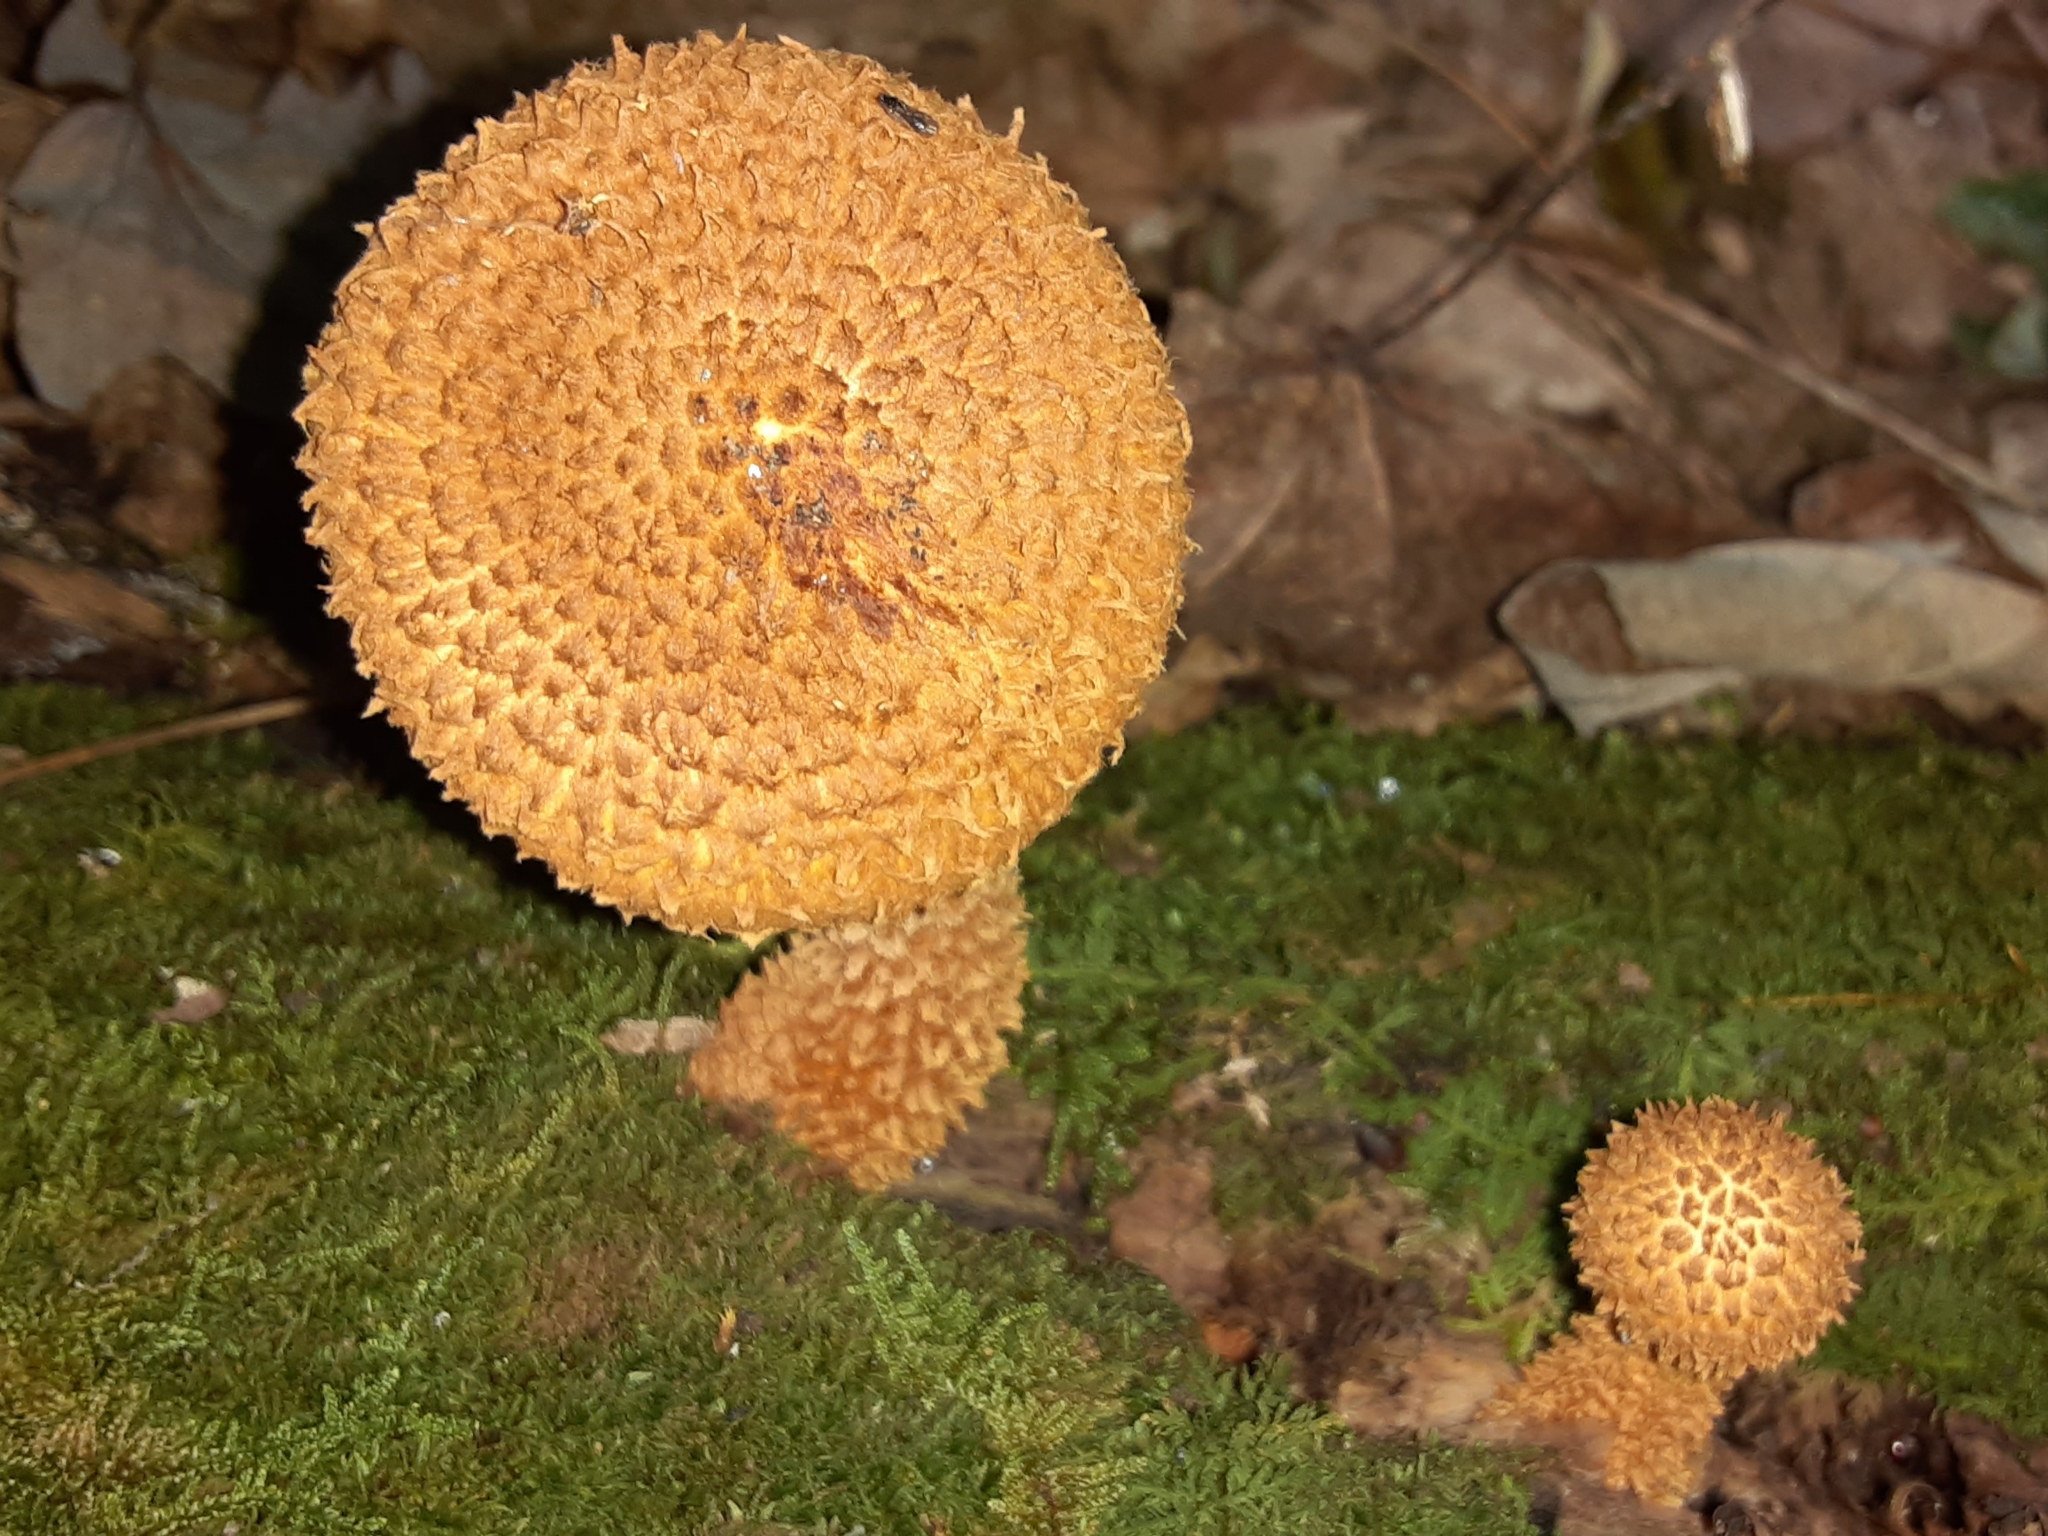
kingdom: Fungi
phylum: Basidiomycota
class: Agaricomycetes
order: Agaricales
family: Agaricaceae
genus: Leucopholiota
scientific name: Leucopholiota decorosa
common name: Decorated pholiota
